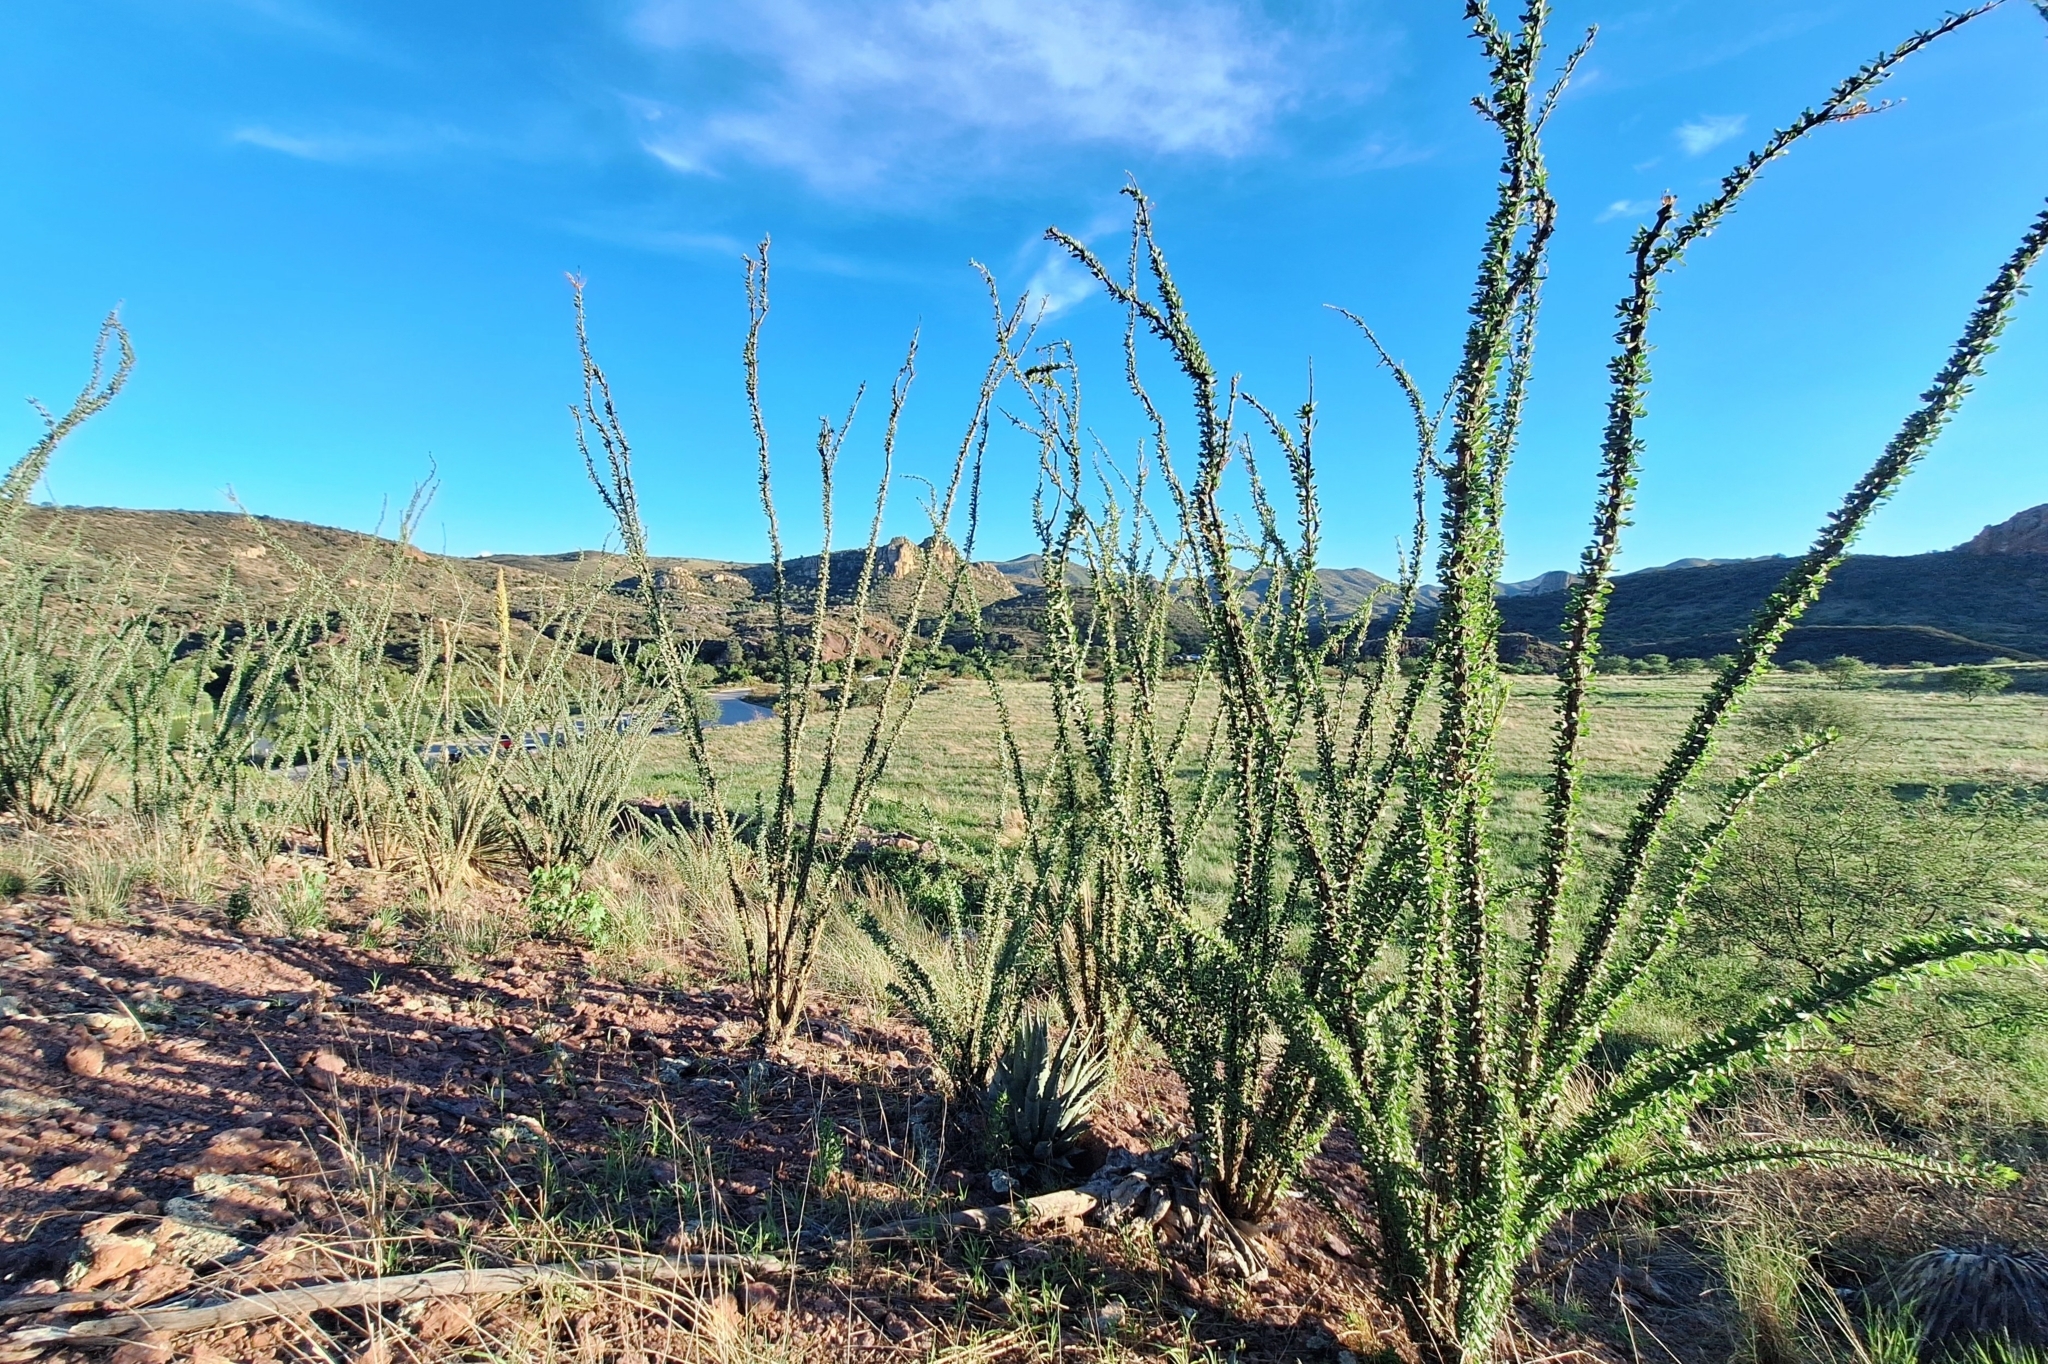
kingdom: Plantae
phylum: Tracheophyta
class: Magnoliopsida
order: Ericales
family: Fouquieriaceae
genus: Fouquieria
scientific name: Fouquieria splendens
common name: Vine-cactus
